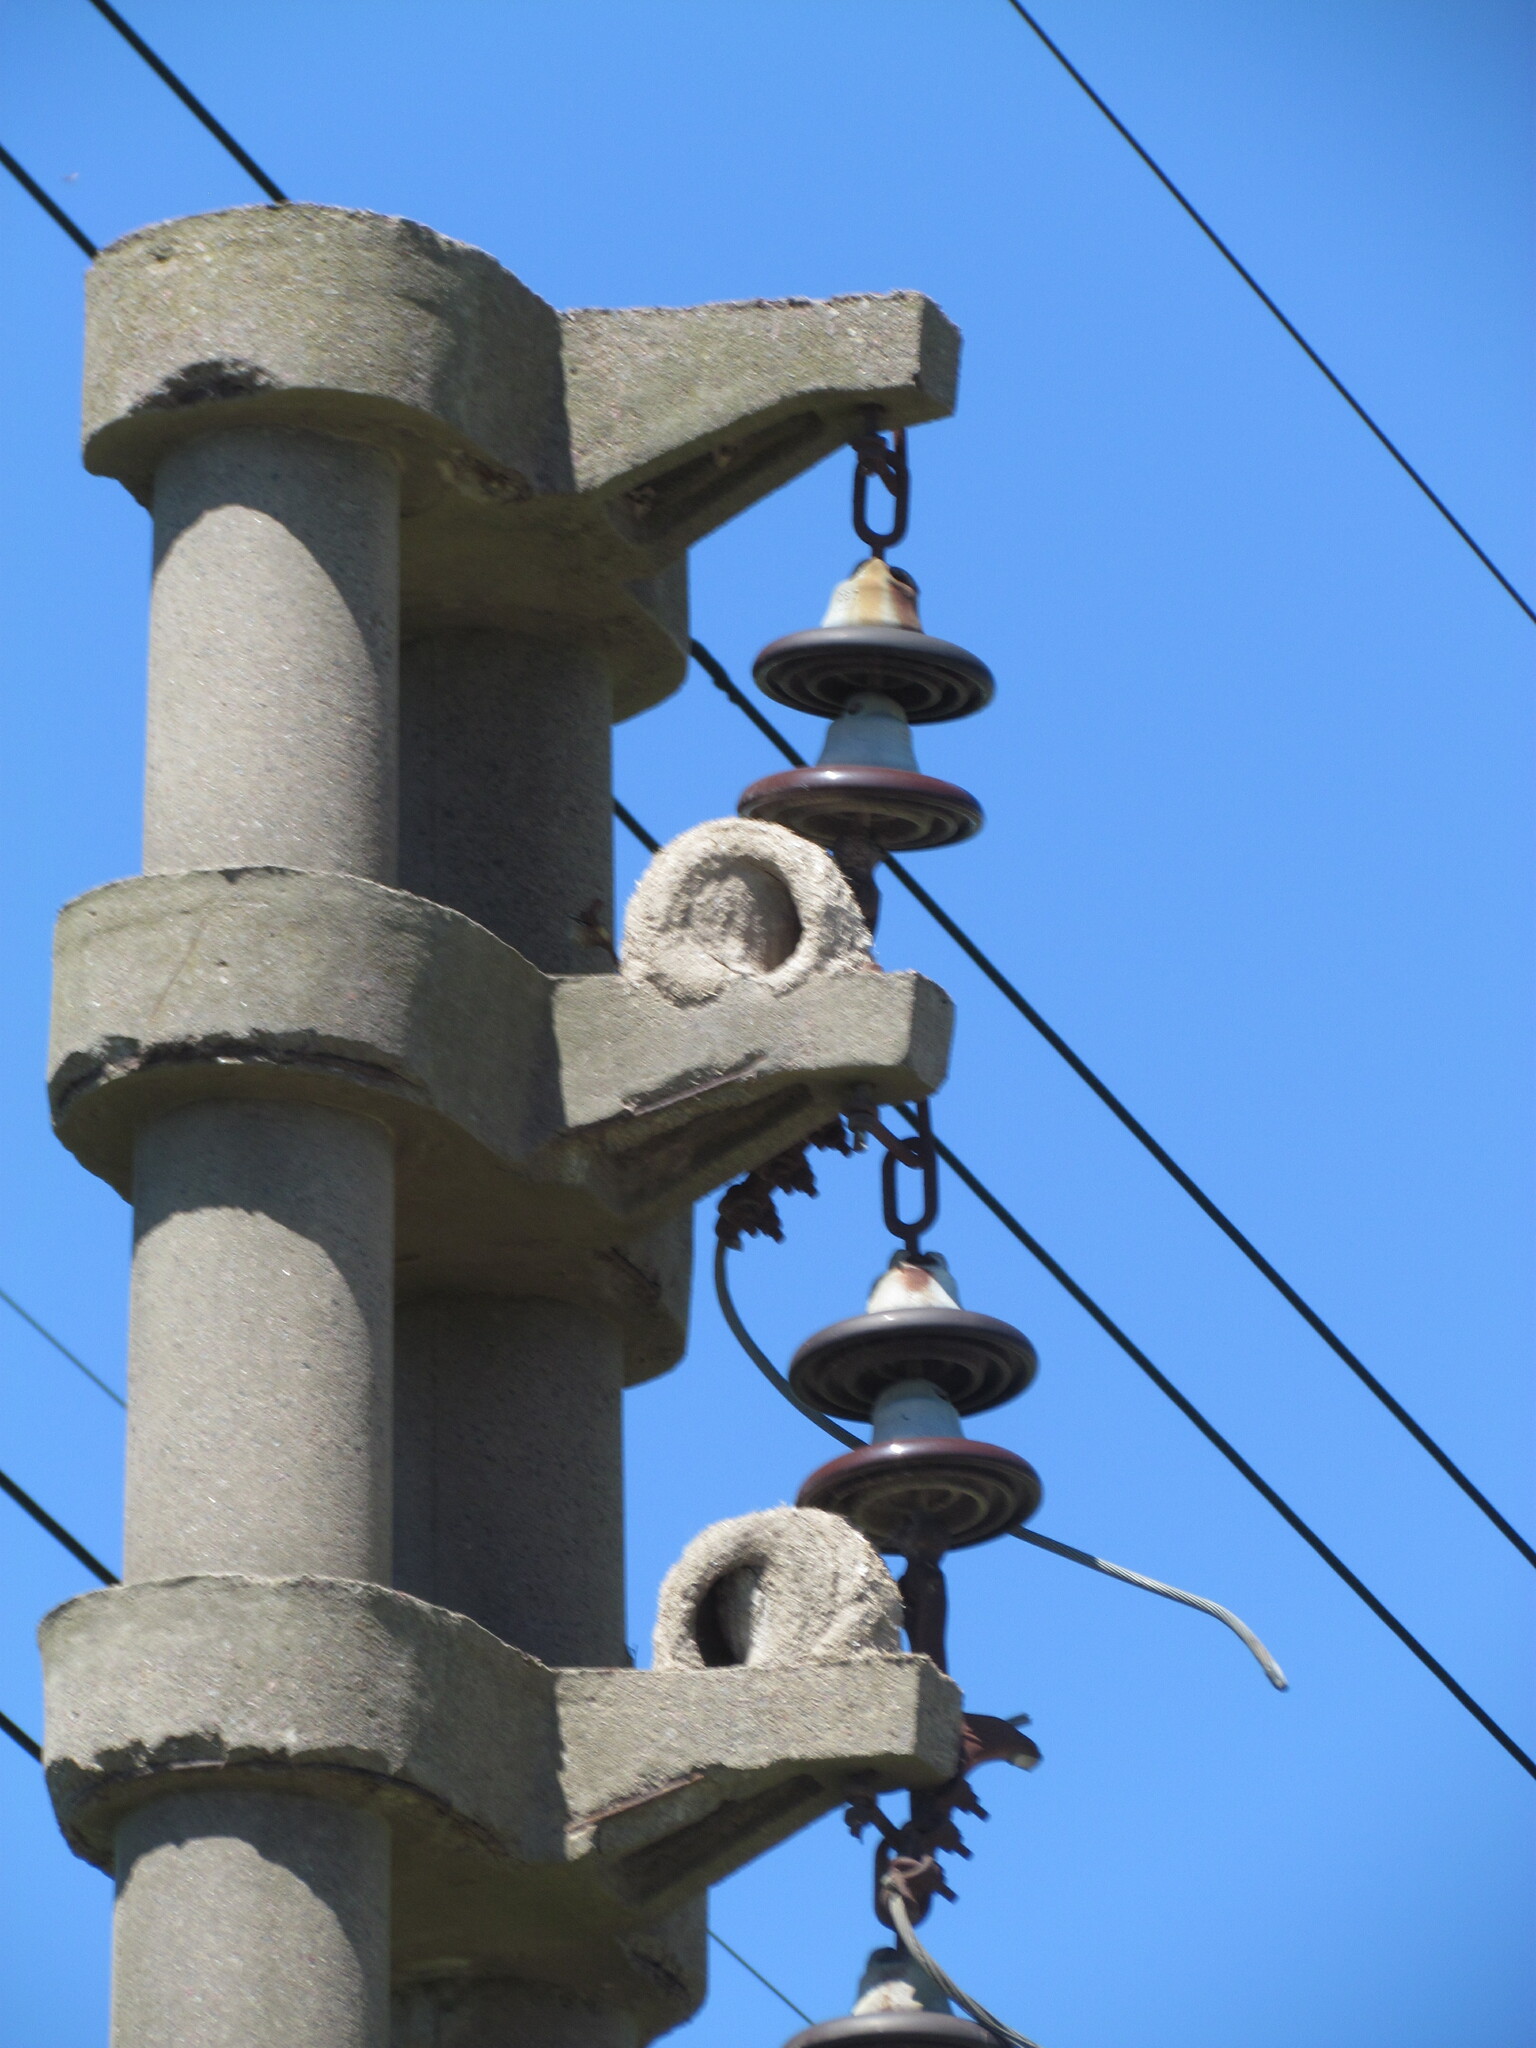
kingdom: Animalia
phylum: Chordata
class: Aves
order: Passeriformes
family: Furnariidae
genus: Furnarius
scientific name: Furnarius rufus
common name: Rufous hornero
